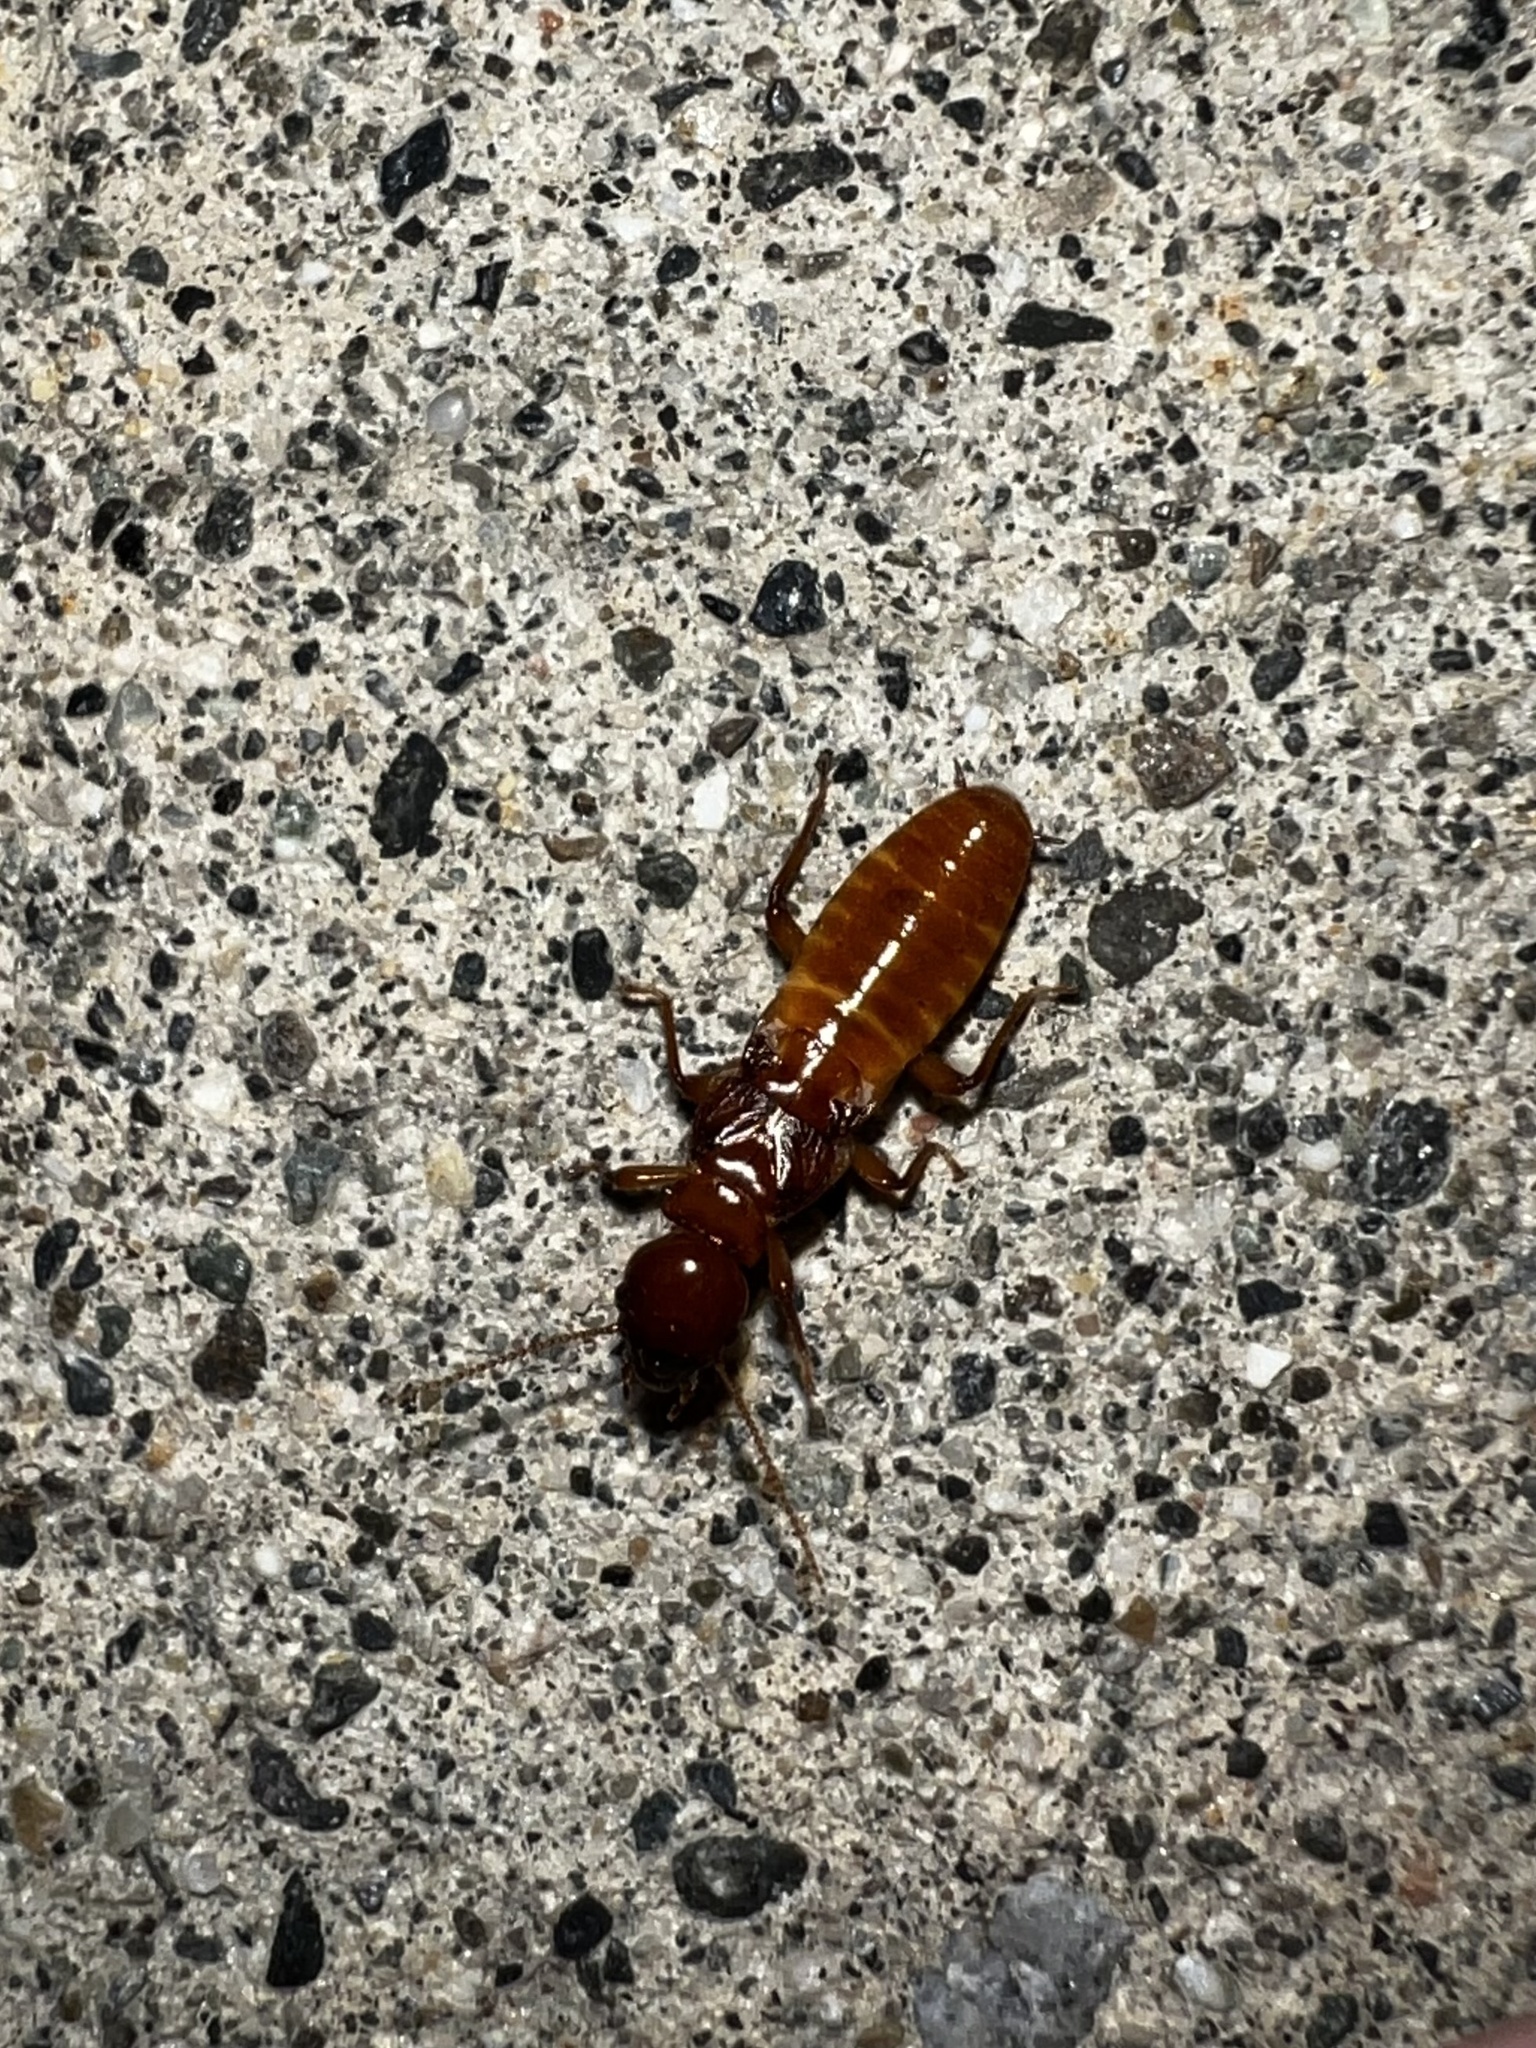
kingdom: Animalia
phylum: Arthropoda
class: Insecta
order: Blattodea
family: Archotermopsidae
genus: Zootermopsis
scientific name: Zootermopsis angusticollis
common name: Rottenwood termite
